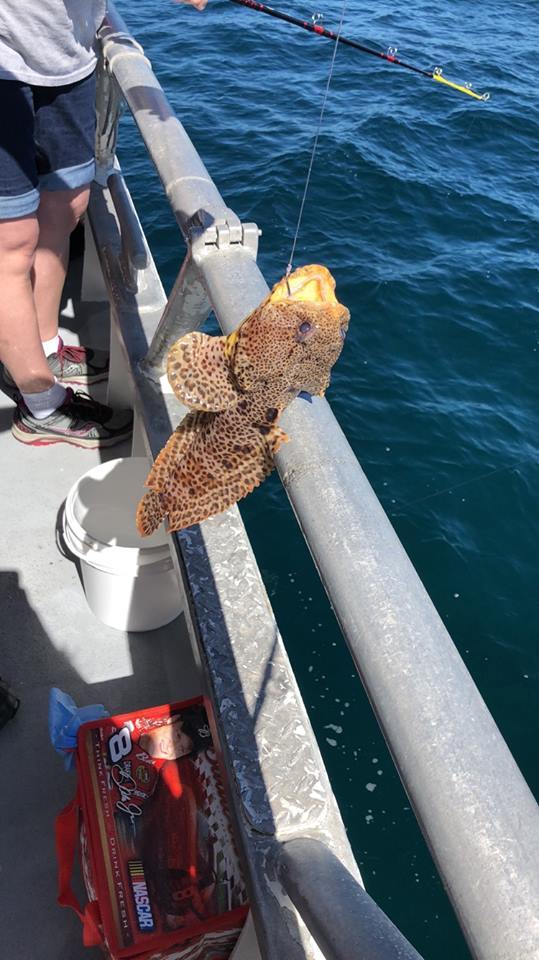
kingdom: Animalia
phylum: Chordata
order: Batrachoidiformes
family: Batrachoididae
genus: Opsanus
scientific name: Opsanus pardus
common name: Leopard toadfish
